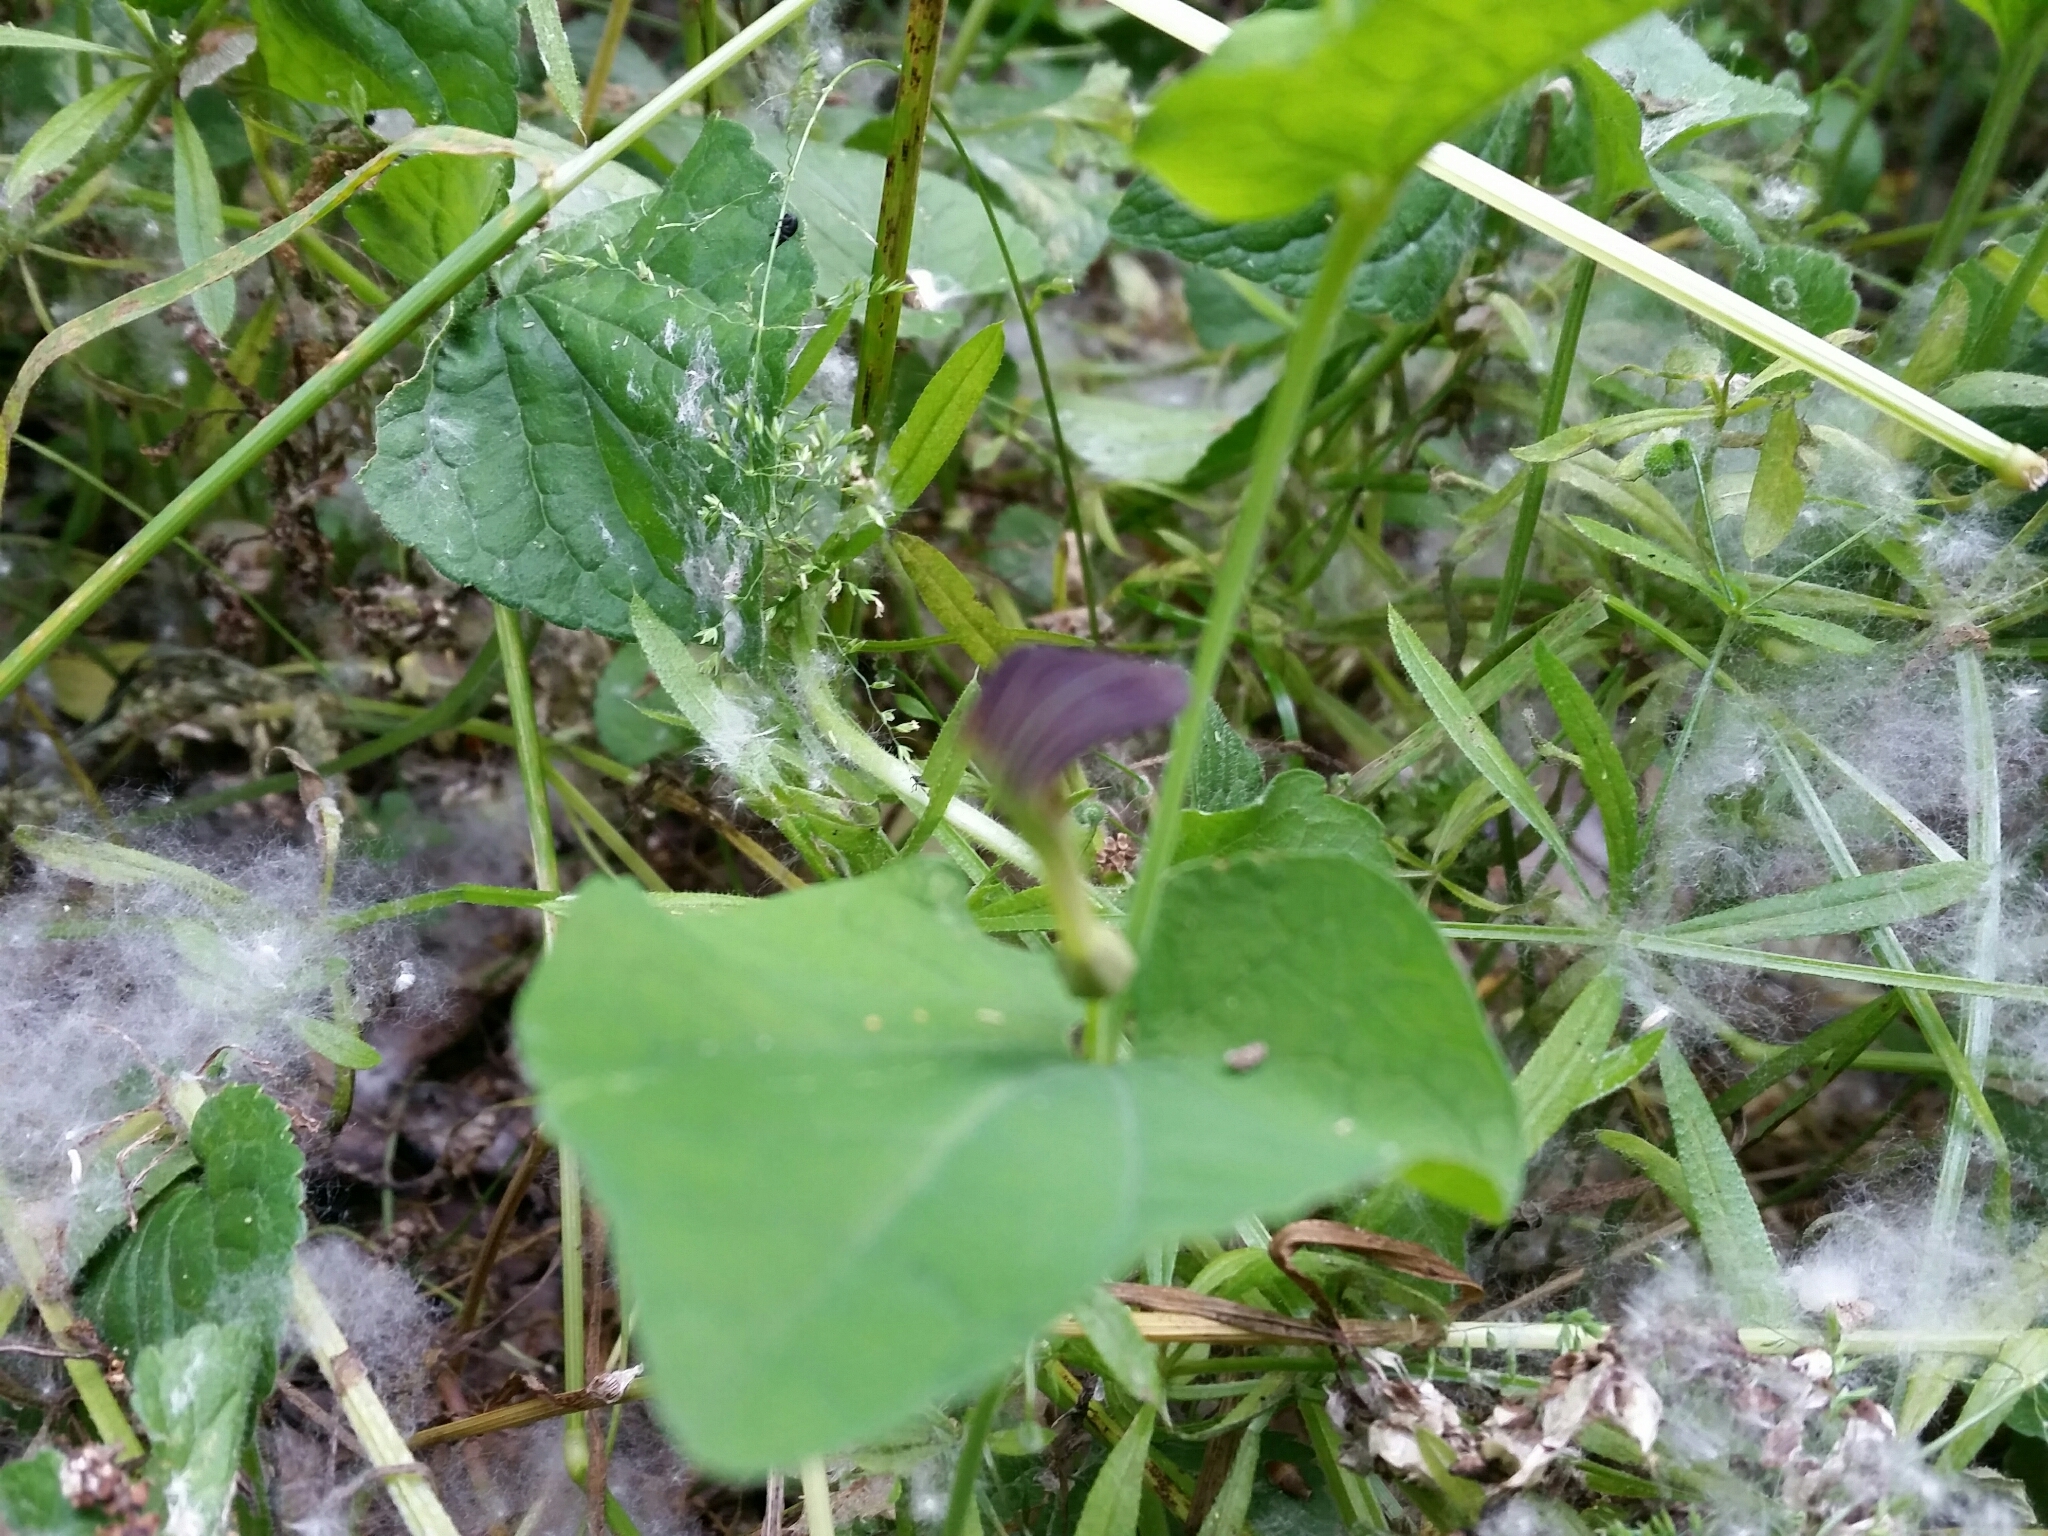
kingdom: Plantae
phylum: Tracheophyta
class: Magnoliopsida
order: Piperales
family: Aristolochiaceae
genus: Aristolochia
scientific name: Aristolochia rotunda
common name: Smearwort
